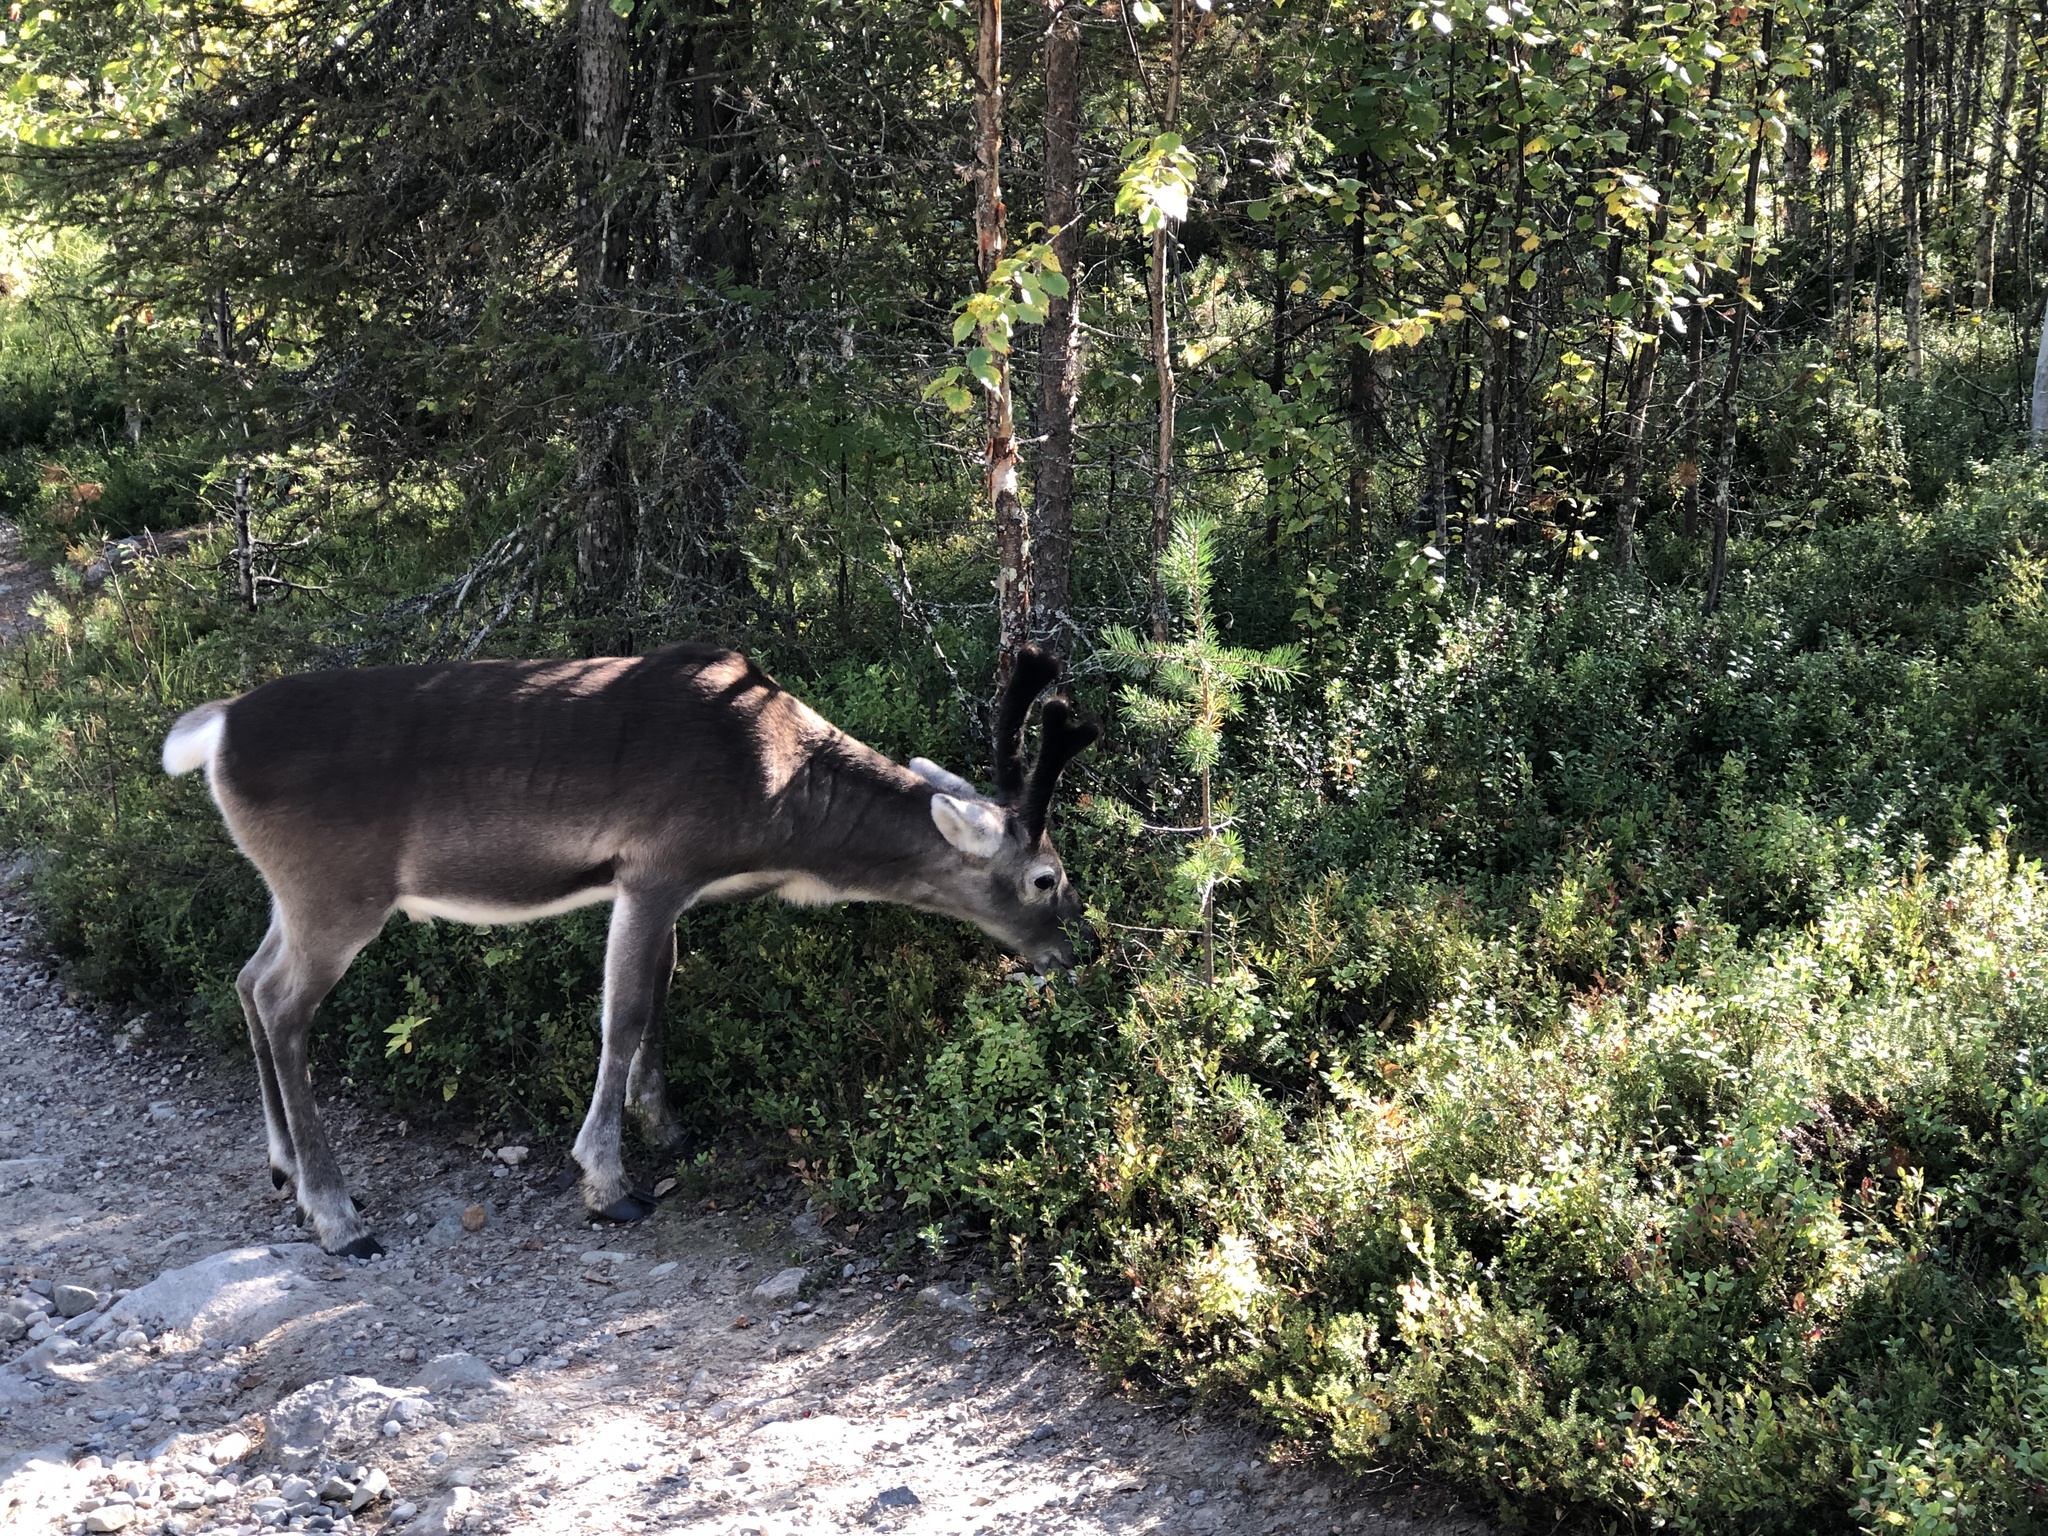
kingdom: Animalia
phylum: Chordata
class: Mammalia
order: Artiodactyla
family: Cervidae
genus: Rangifer
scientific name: Rangifer tarandus
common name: Reindeer
